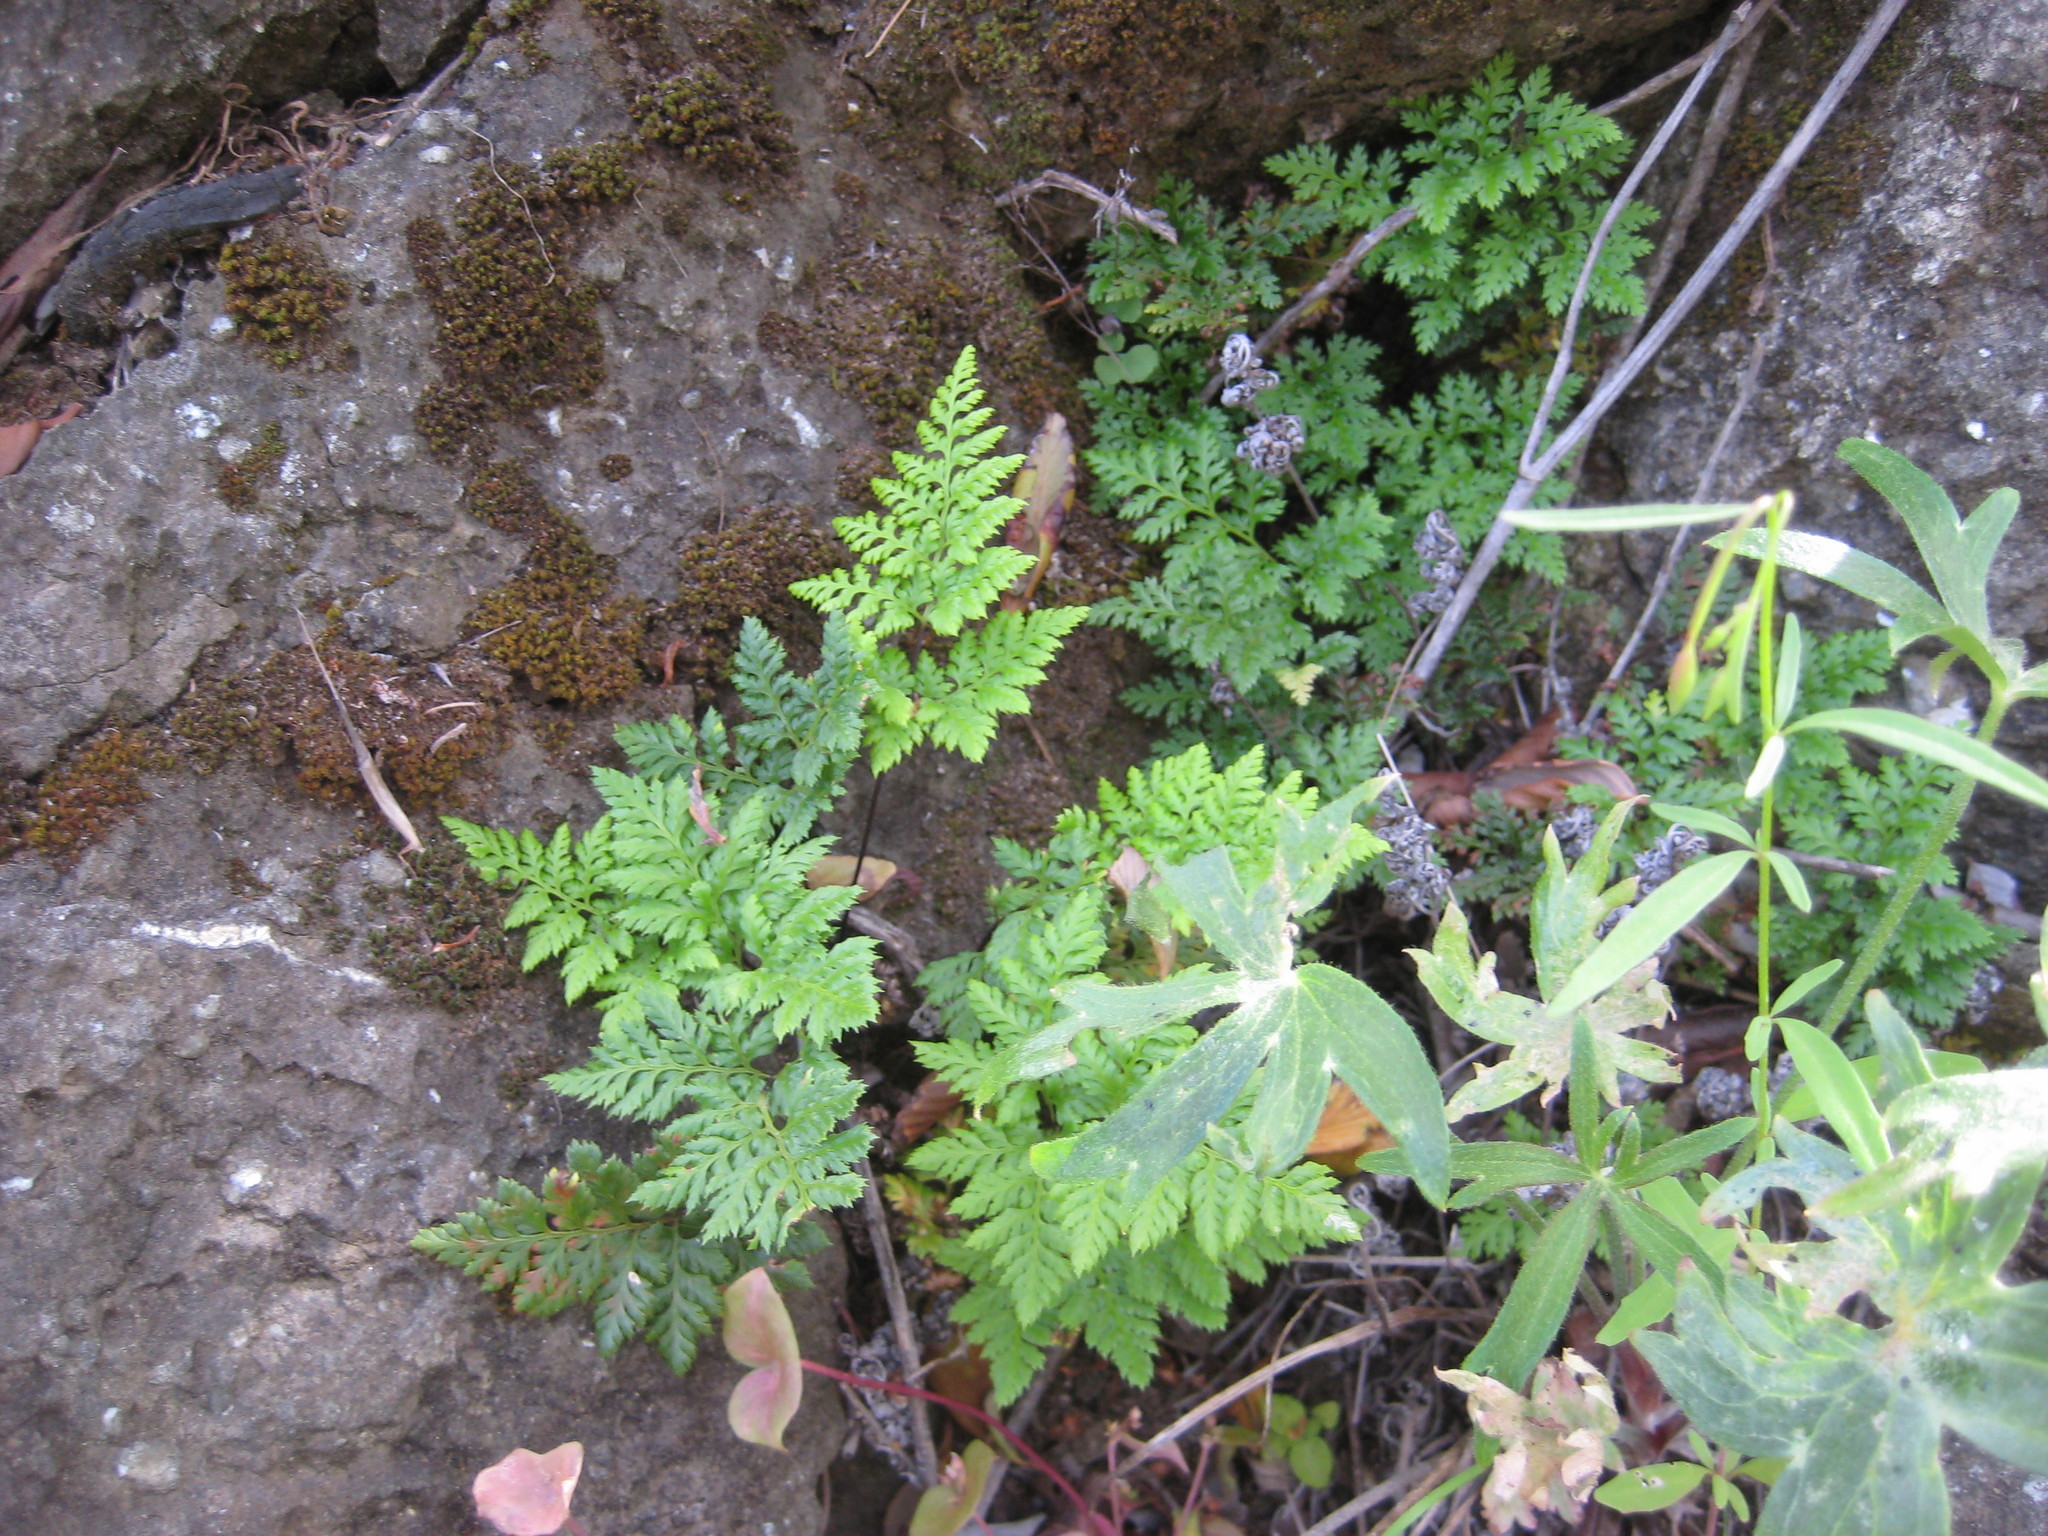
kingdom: Plantae
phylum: Tracheophyta
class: Polypodiopsida
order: Polypodiales
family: Pteridaceae
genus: Aspidotis
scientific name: Aspidotis californica
